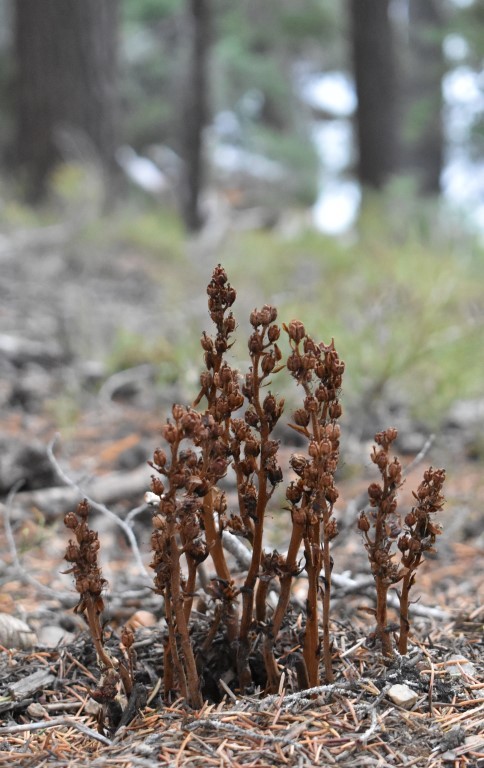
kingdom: Plantae
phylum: Tracheophyta
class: Magnoliopsida
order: Ericales
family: Ericaceae
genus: Hypopitys
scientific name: Hypopitys monotropa
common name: Yellow bird's-nest
